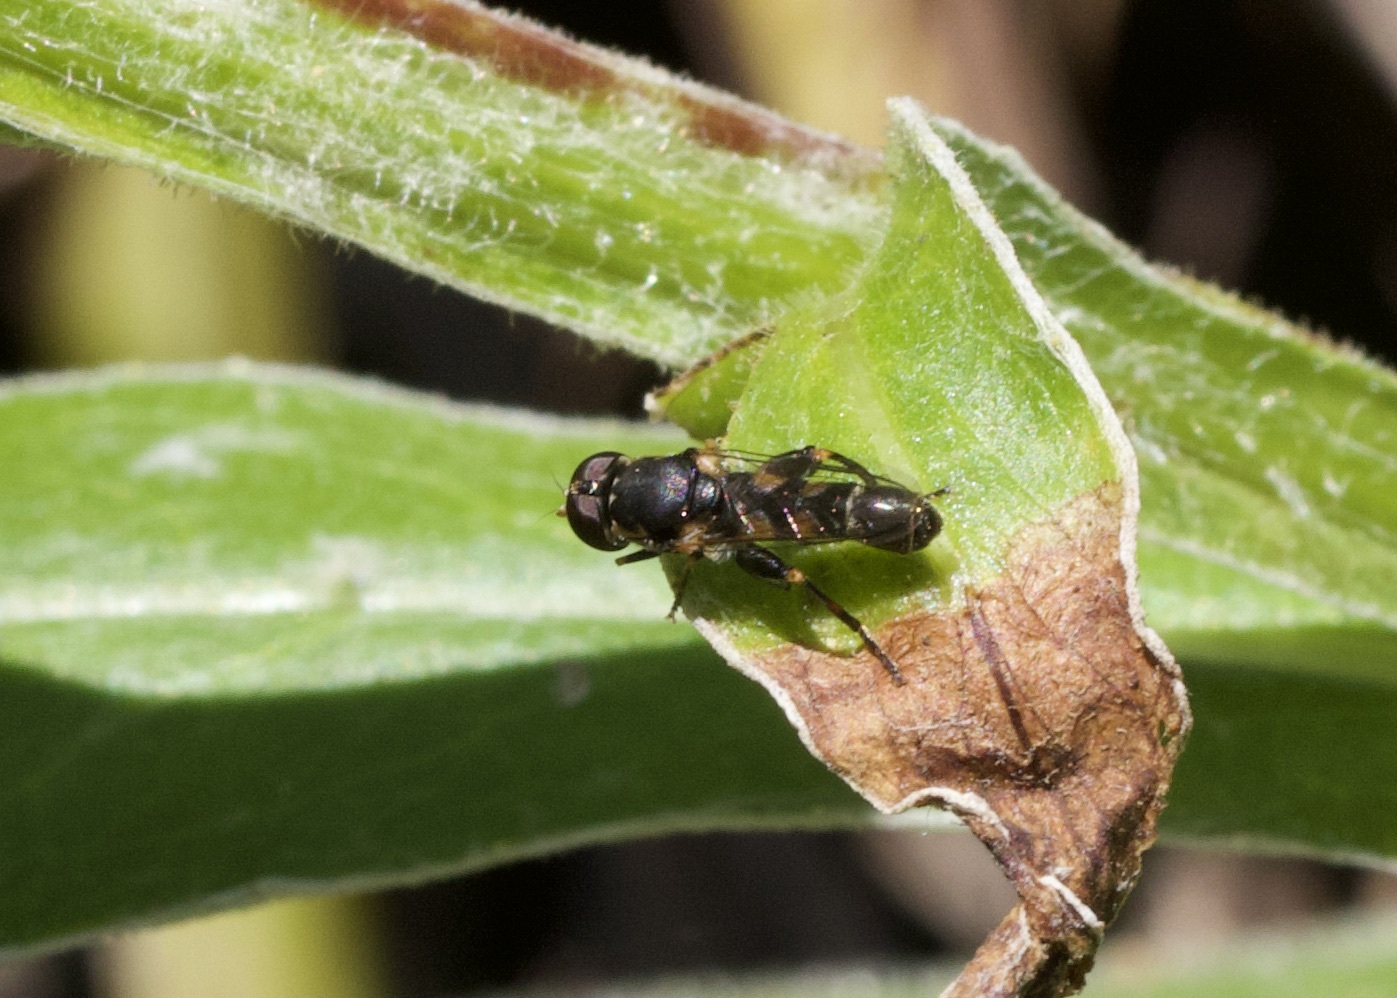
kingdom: Animalia
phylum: Arthropoda
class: Insecta
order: Diptera
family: Syrphidae
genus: Syritta
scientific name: Syritta pipiens
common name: Hover fly
